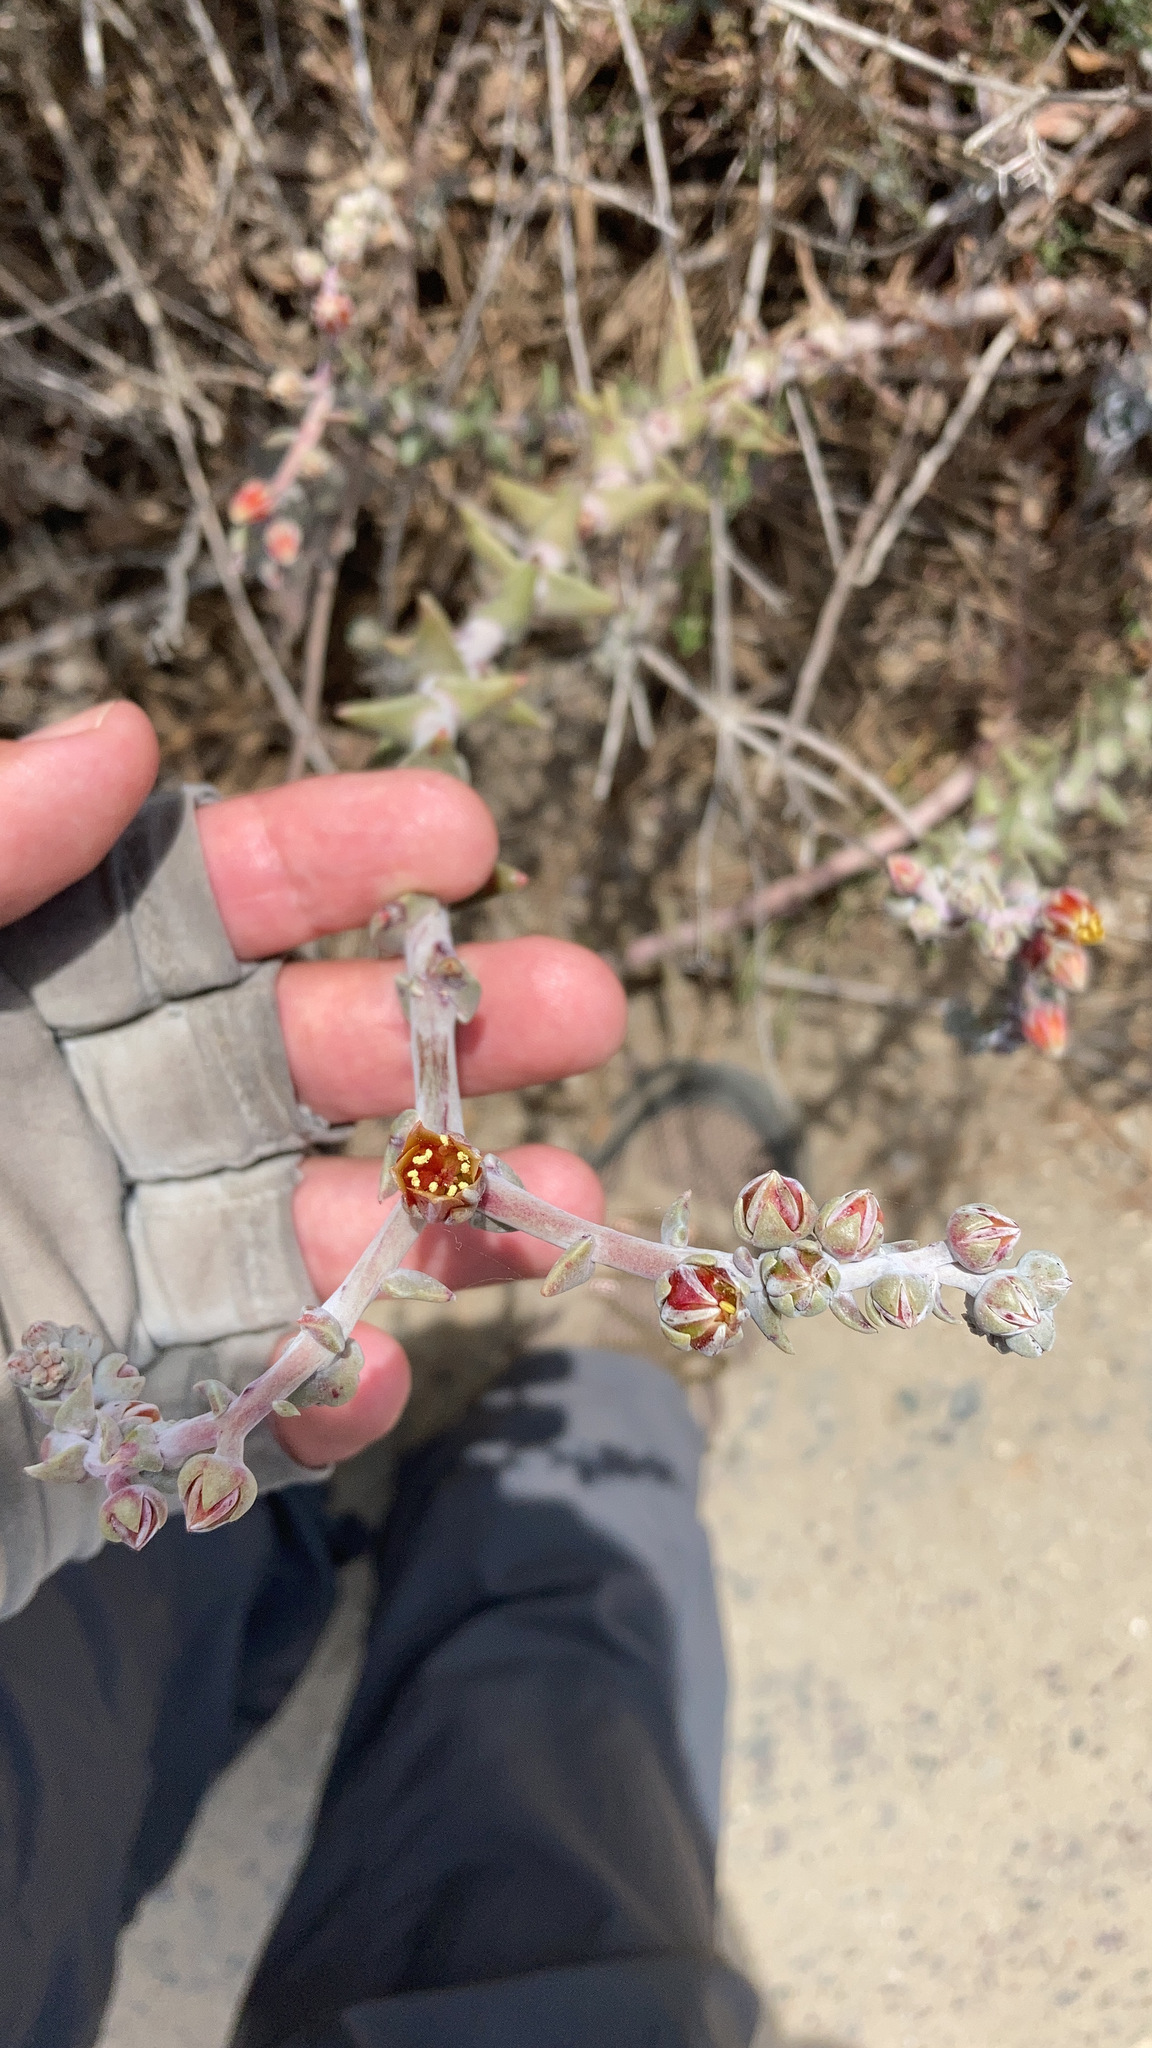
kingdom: Plantae
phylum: Tracheophyta
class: Magnoliopsida
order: Saxifragales
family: Crassulaceae
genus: Dudleya
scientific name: Dudleya lanceolata
